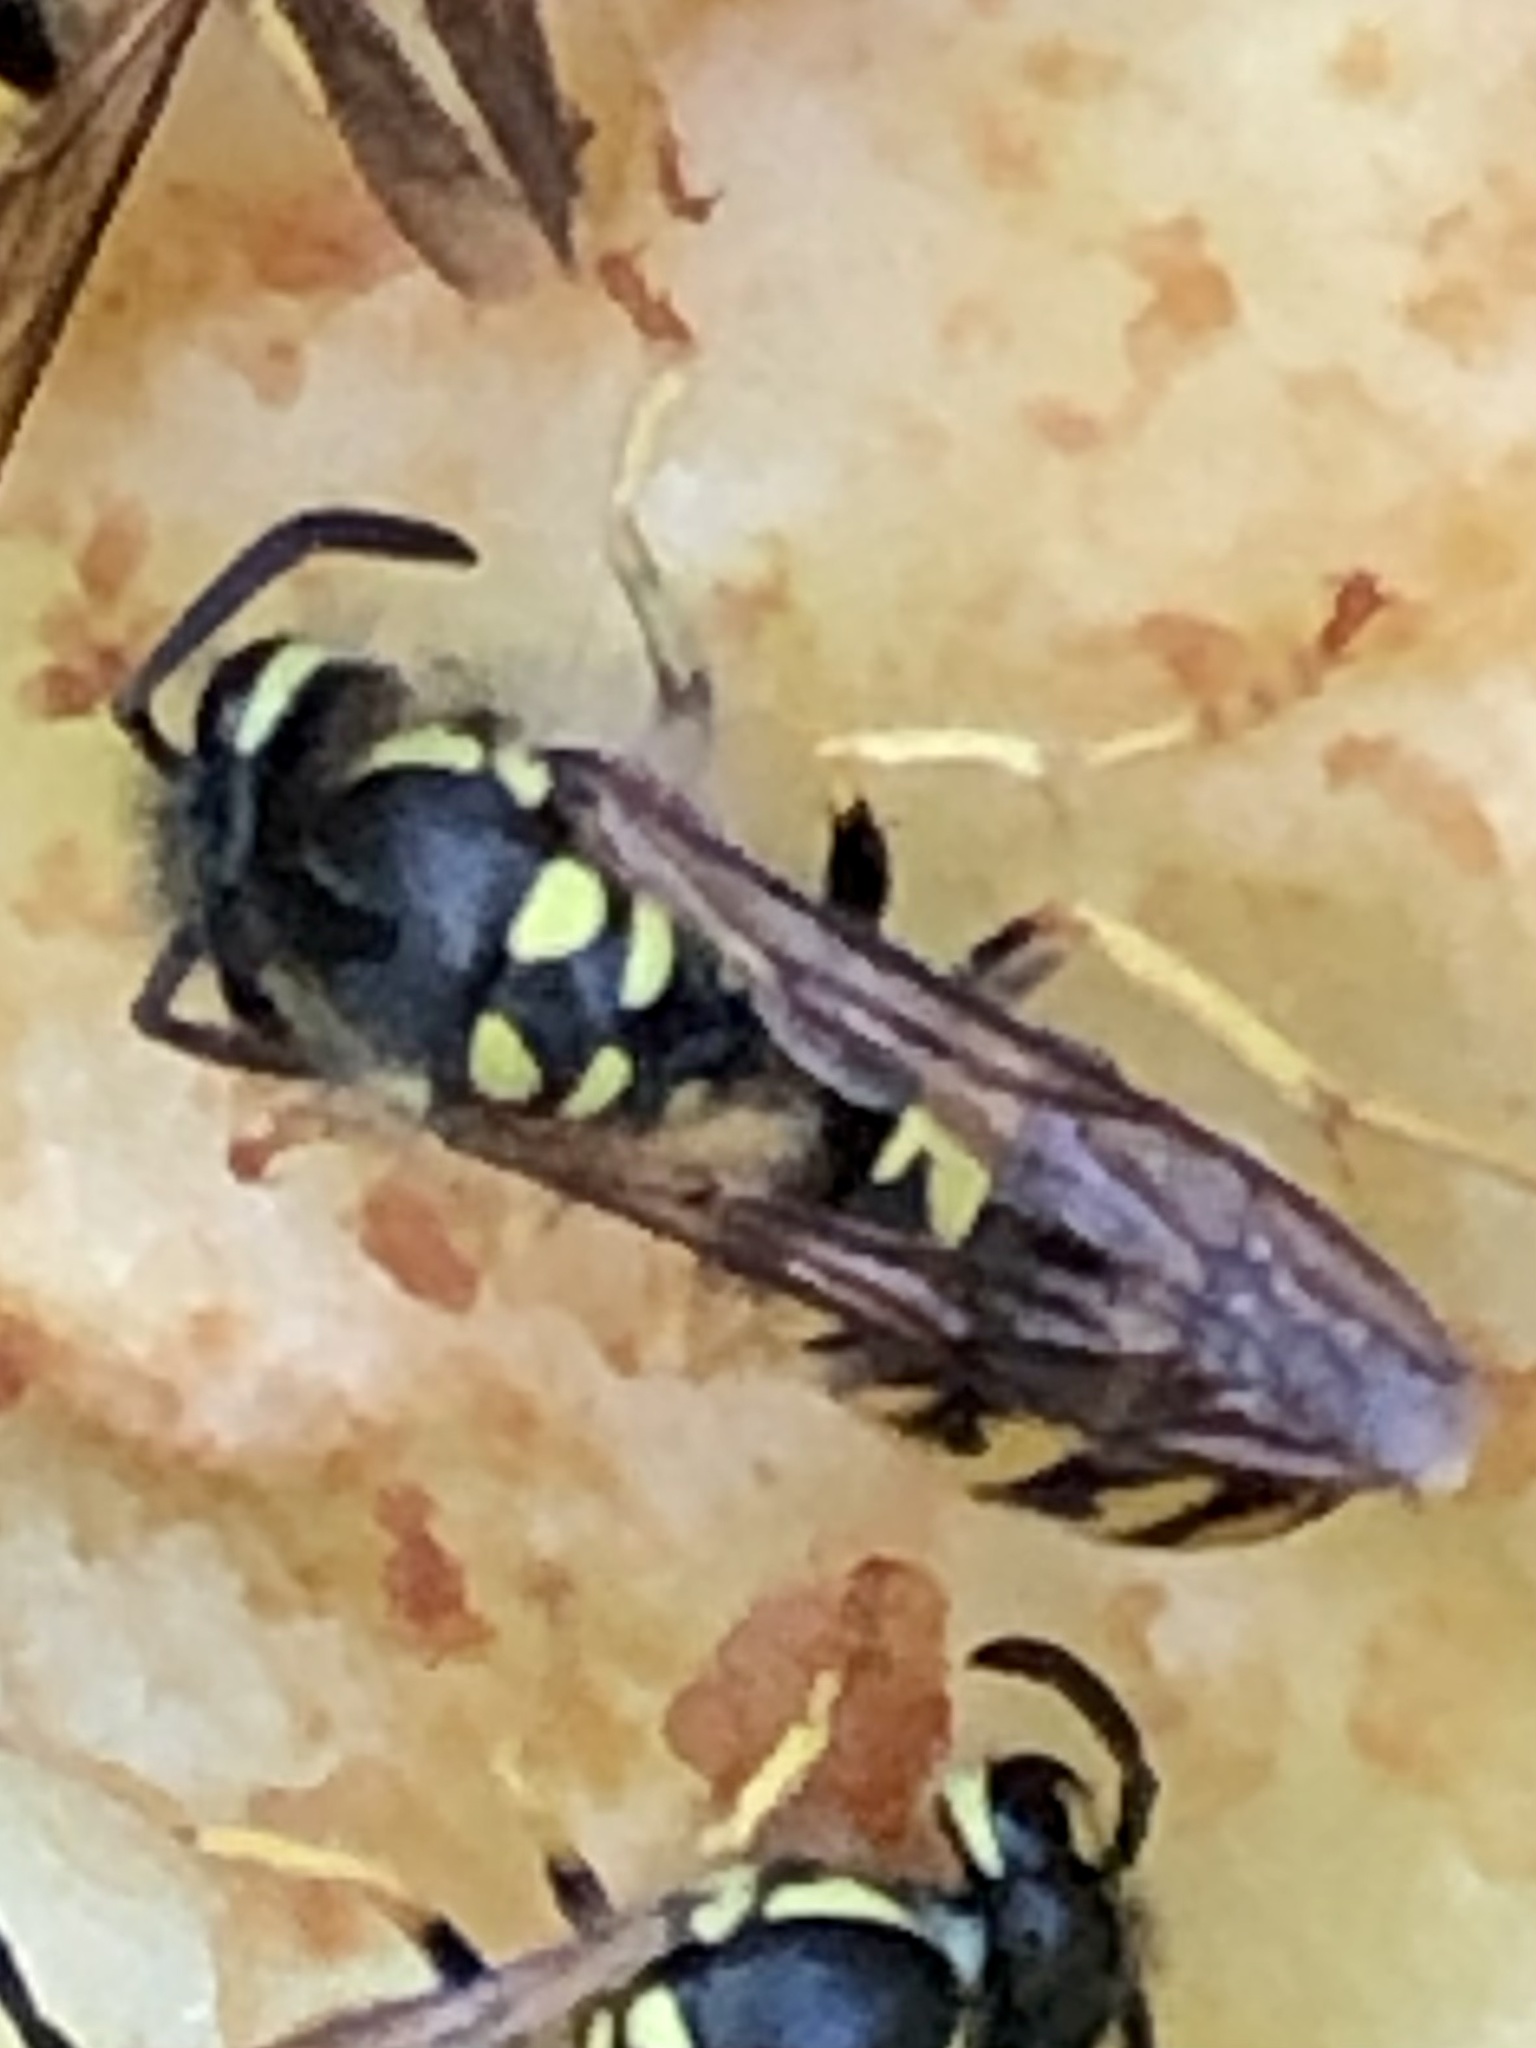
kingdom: Animalia
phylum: Arthropoda
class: Insecta
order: Hymenoptera
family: Vespidae
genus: Vespula
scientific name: Vespula germanica
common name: German wasp
